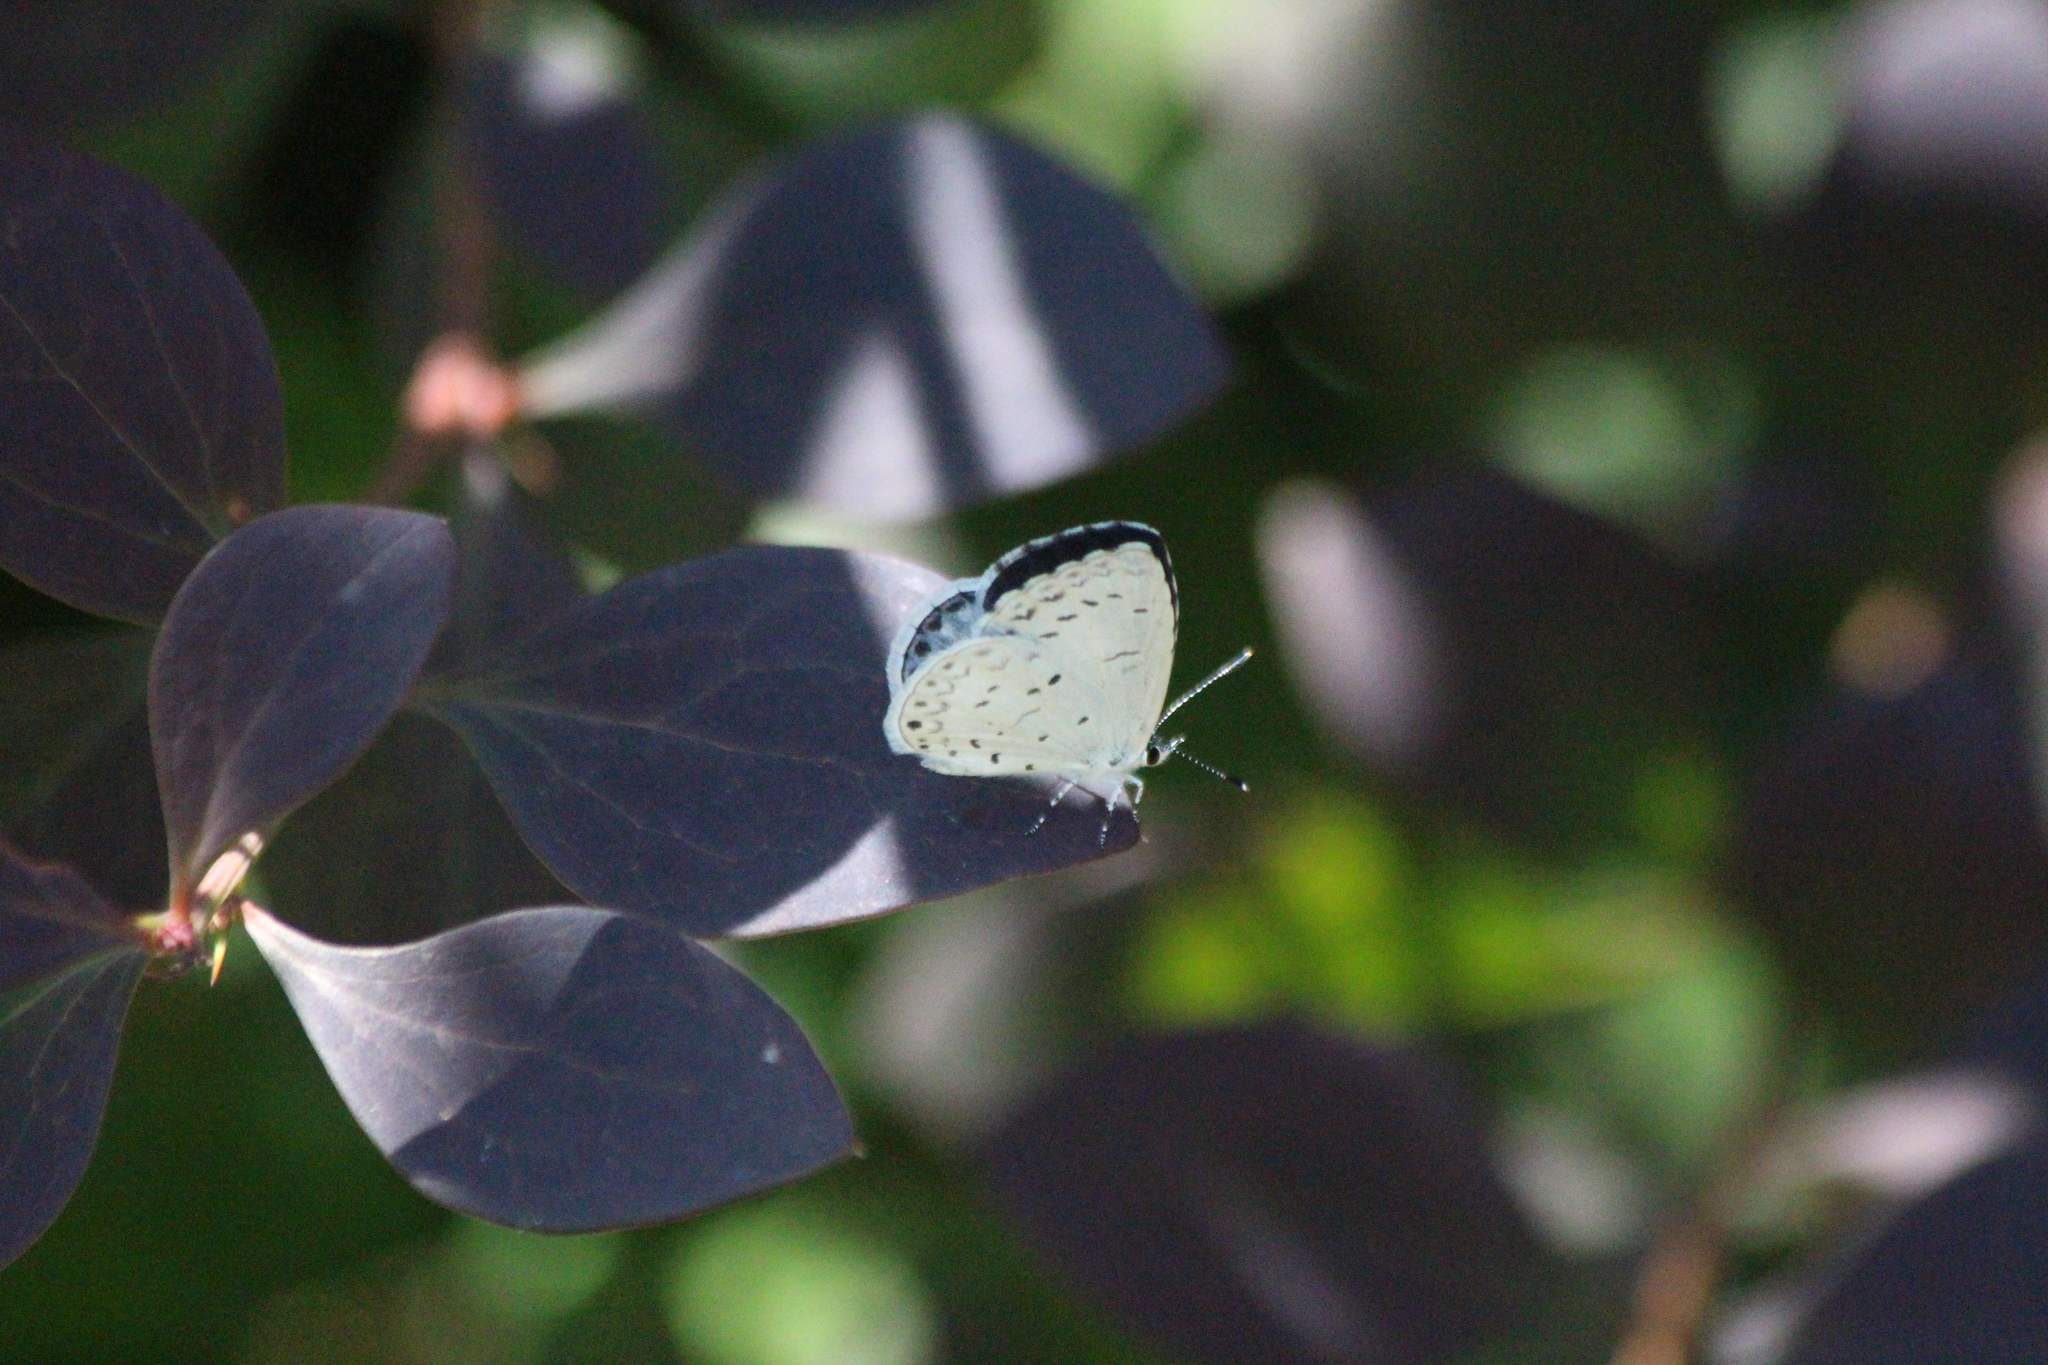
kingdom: Animalia
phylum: Arthropoda
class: Insecta
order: Lepidoptera
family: Lycaenidae
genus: Cyaniris
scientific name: Cyaniris neglecta
